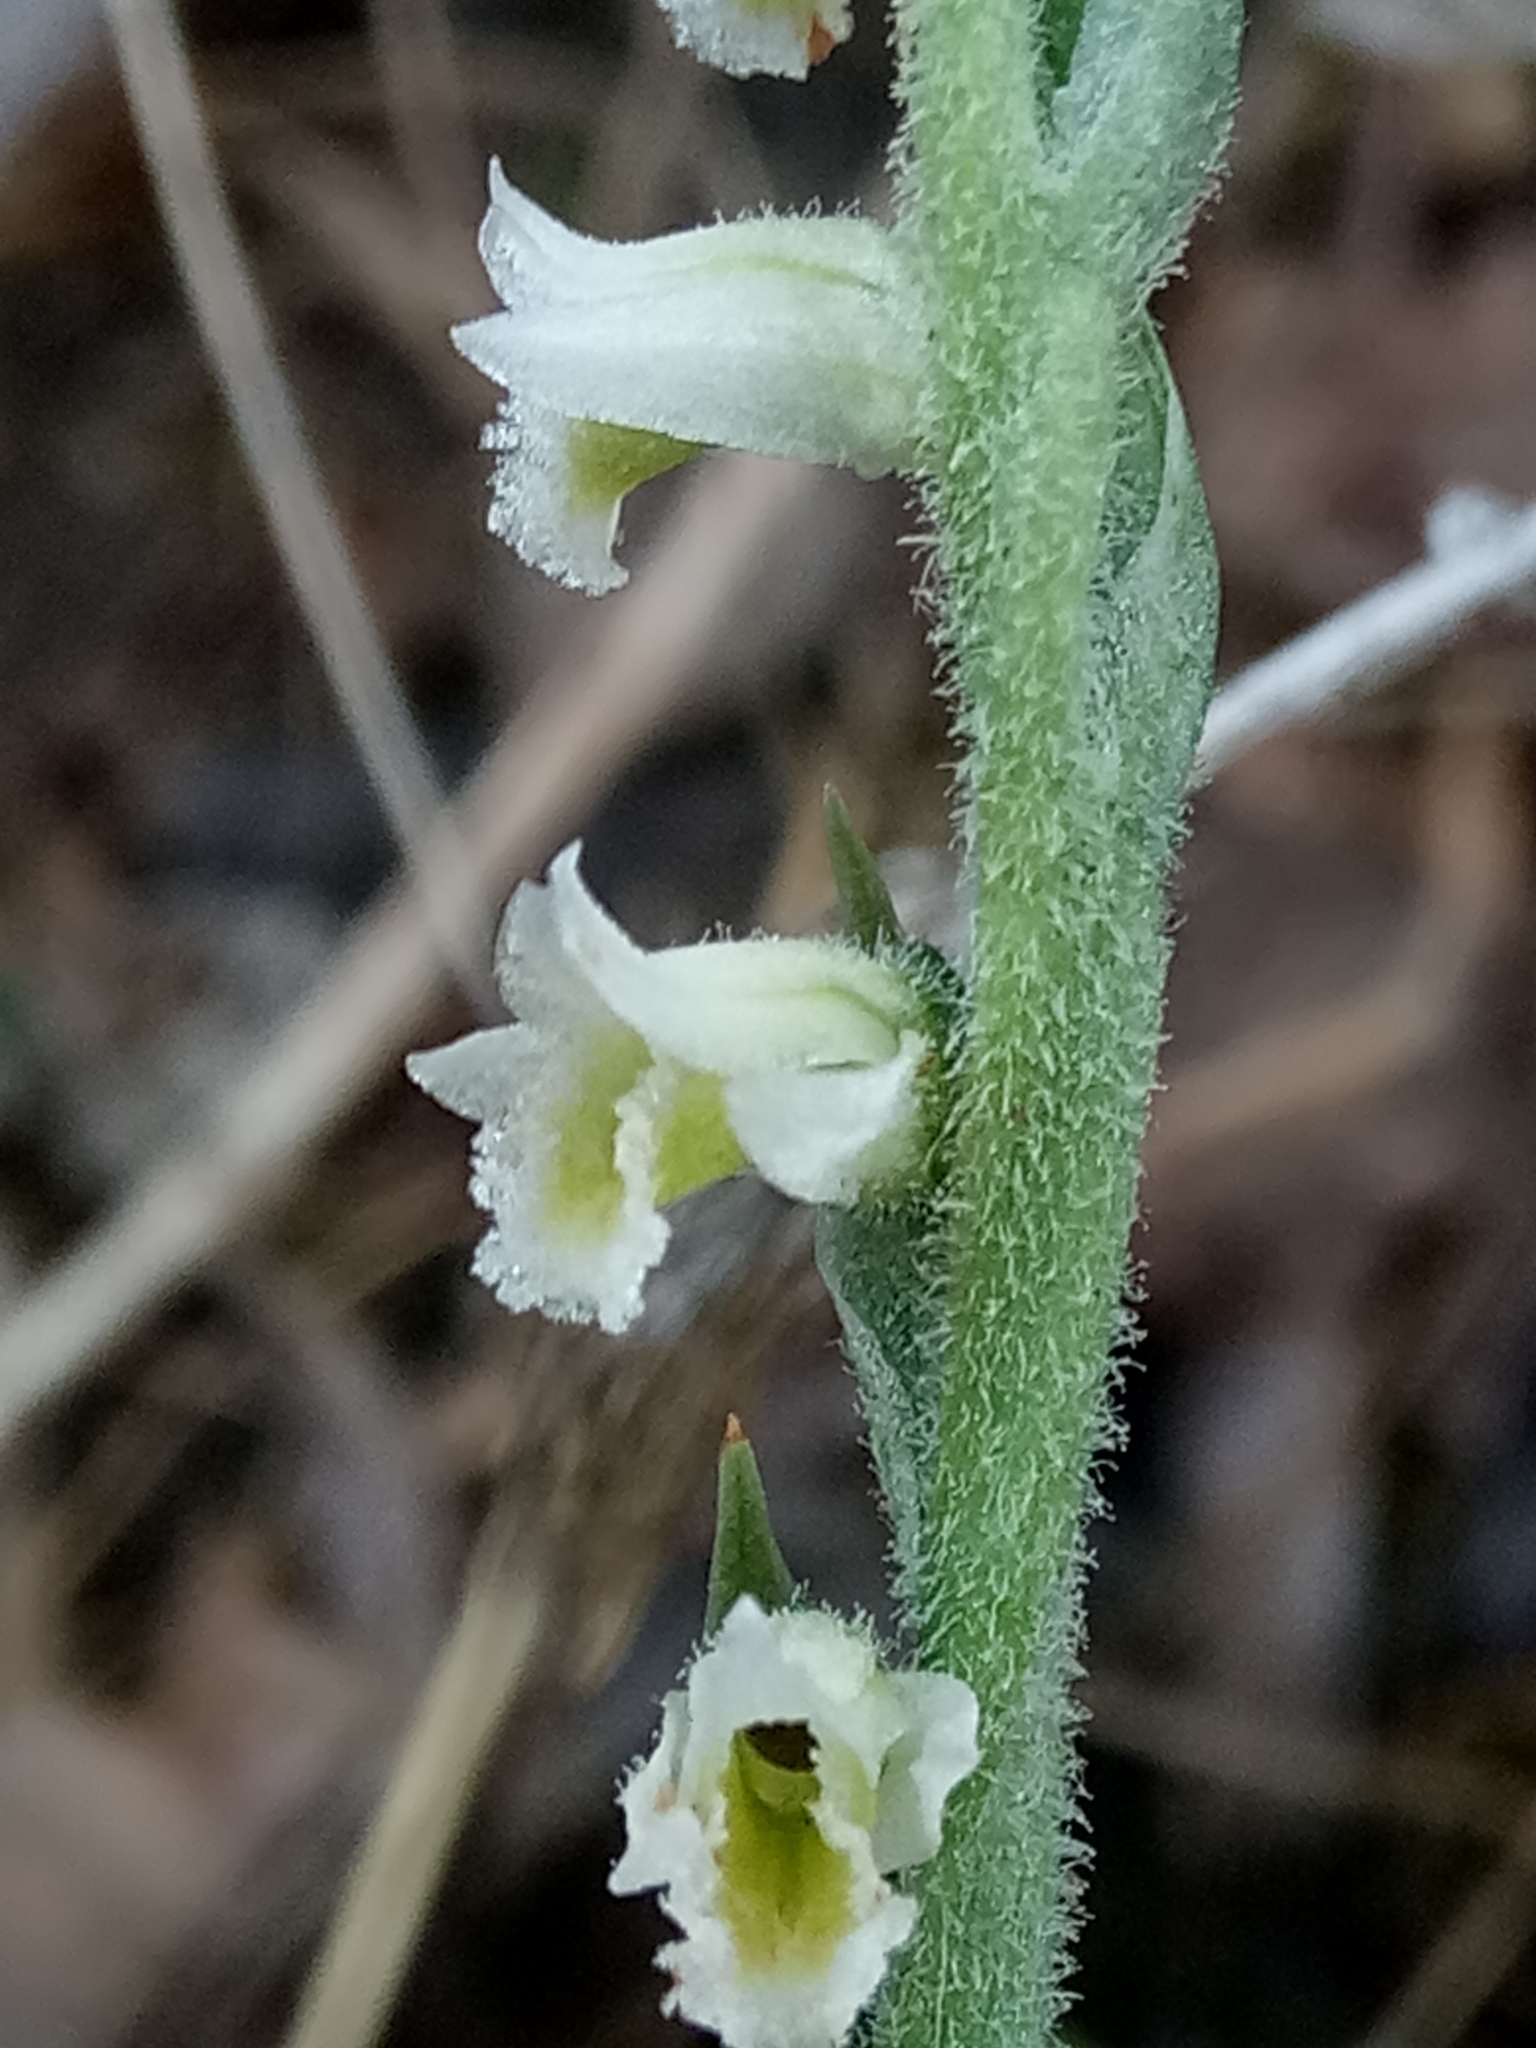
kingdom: Plantae
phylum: Tracheophyta
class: Liliopsida
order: Asparagales
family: Orchidaceae
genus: Spiranthes
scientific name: Spiranthes spiralis
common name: Autumn lady's-tresses
